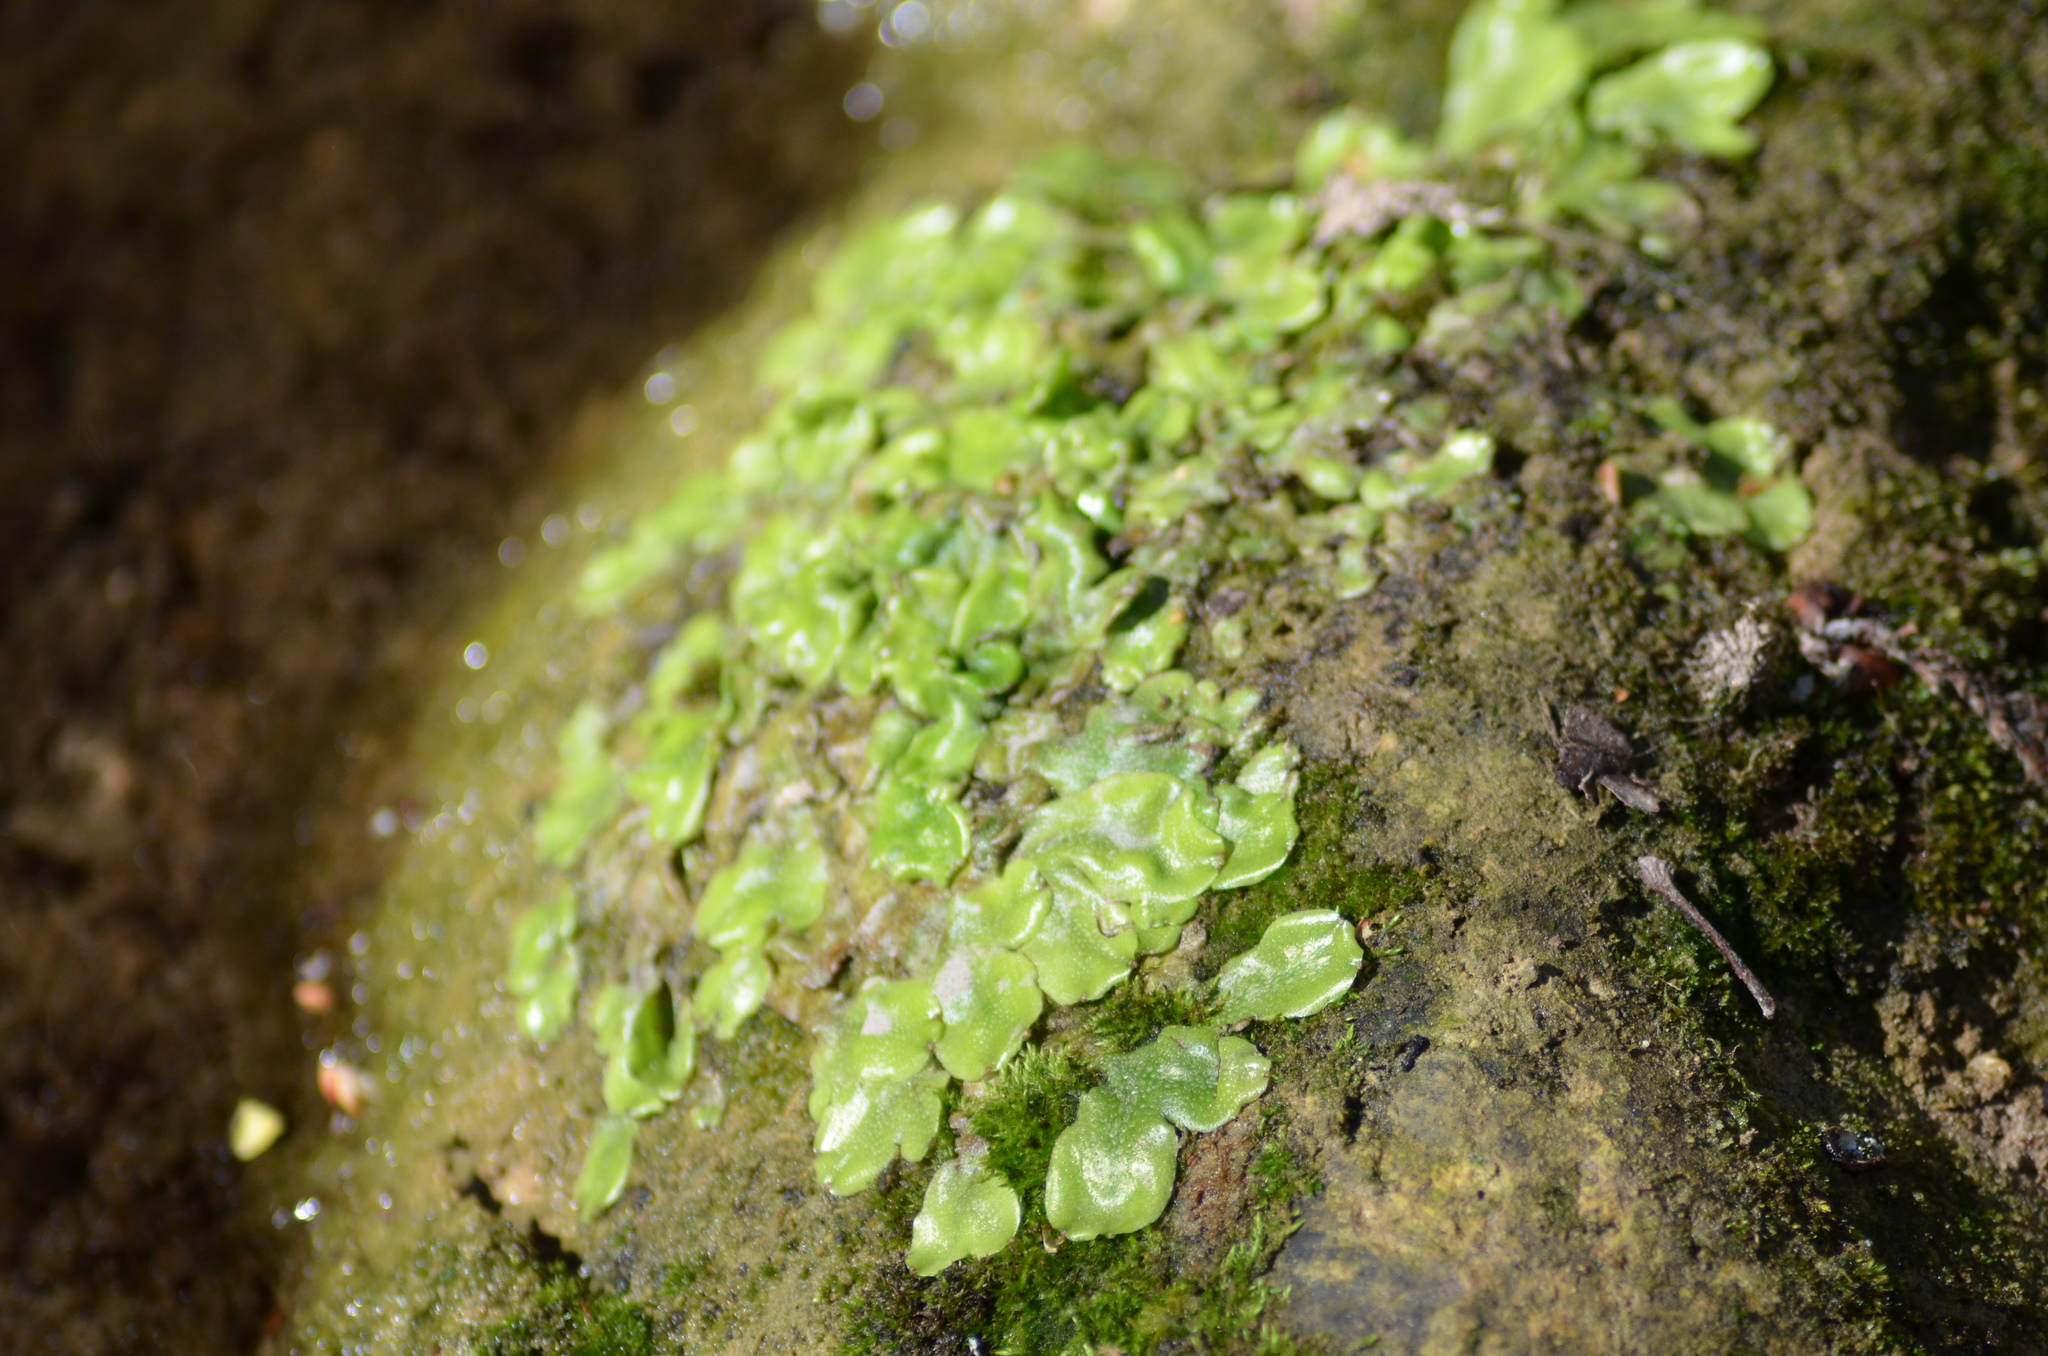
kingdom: Plantae
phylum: Marchantiophyta
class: Marchantiopsida
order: Marchantiales
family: Conocephalaceae
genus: Conocephalum
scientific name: Conocephalum conicum
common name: Great scented liverwort
